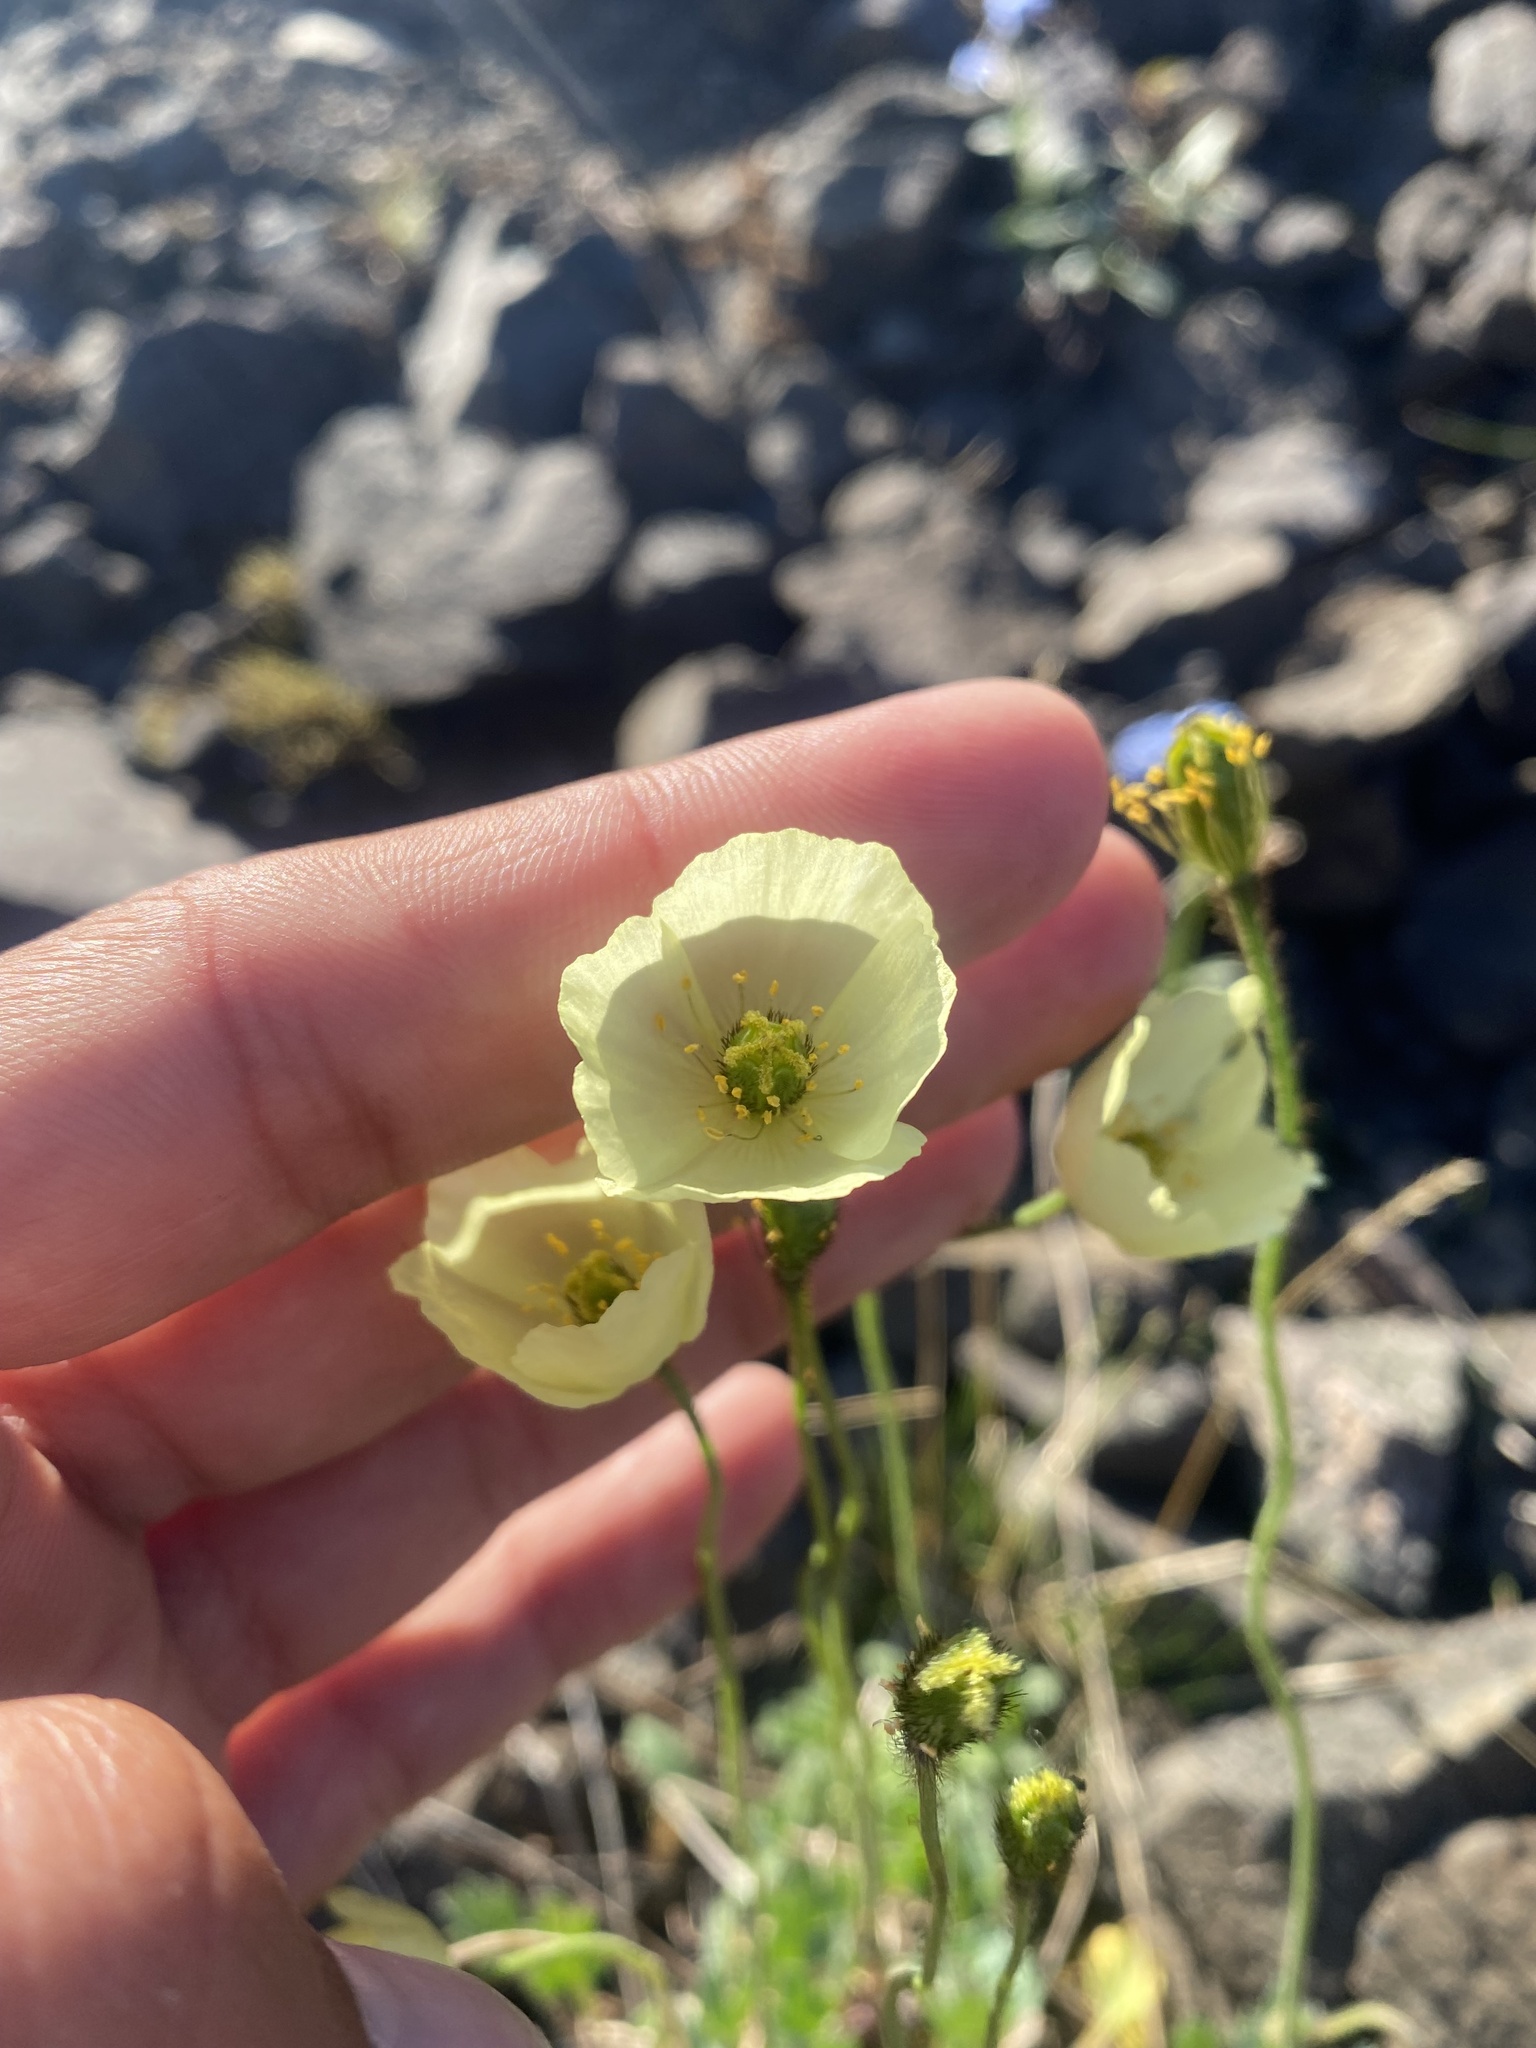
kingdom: Plantae
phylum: Tracheophyta
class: Magnoliopsida
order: Ranunculales
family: Papaveraceae
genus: Papaver
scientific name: Papaver lapponicum
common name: Lapland poppy
